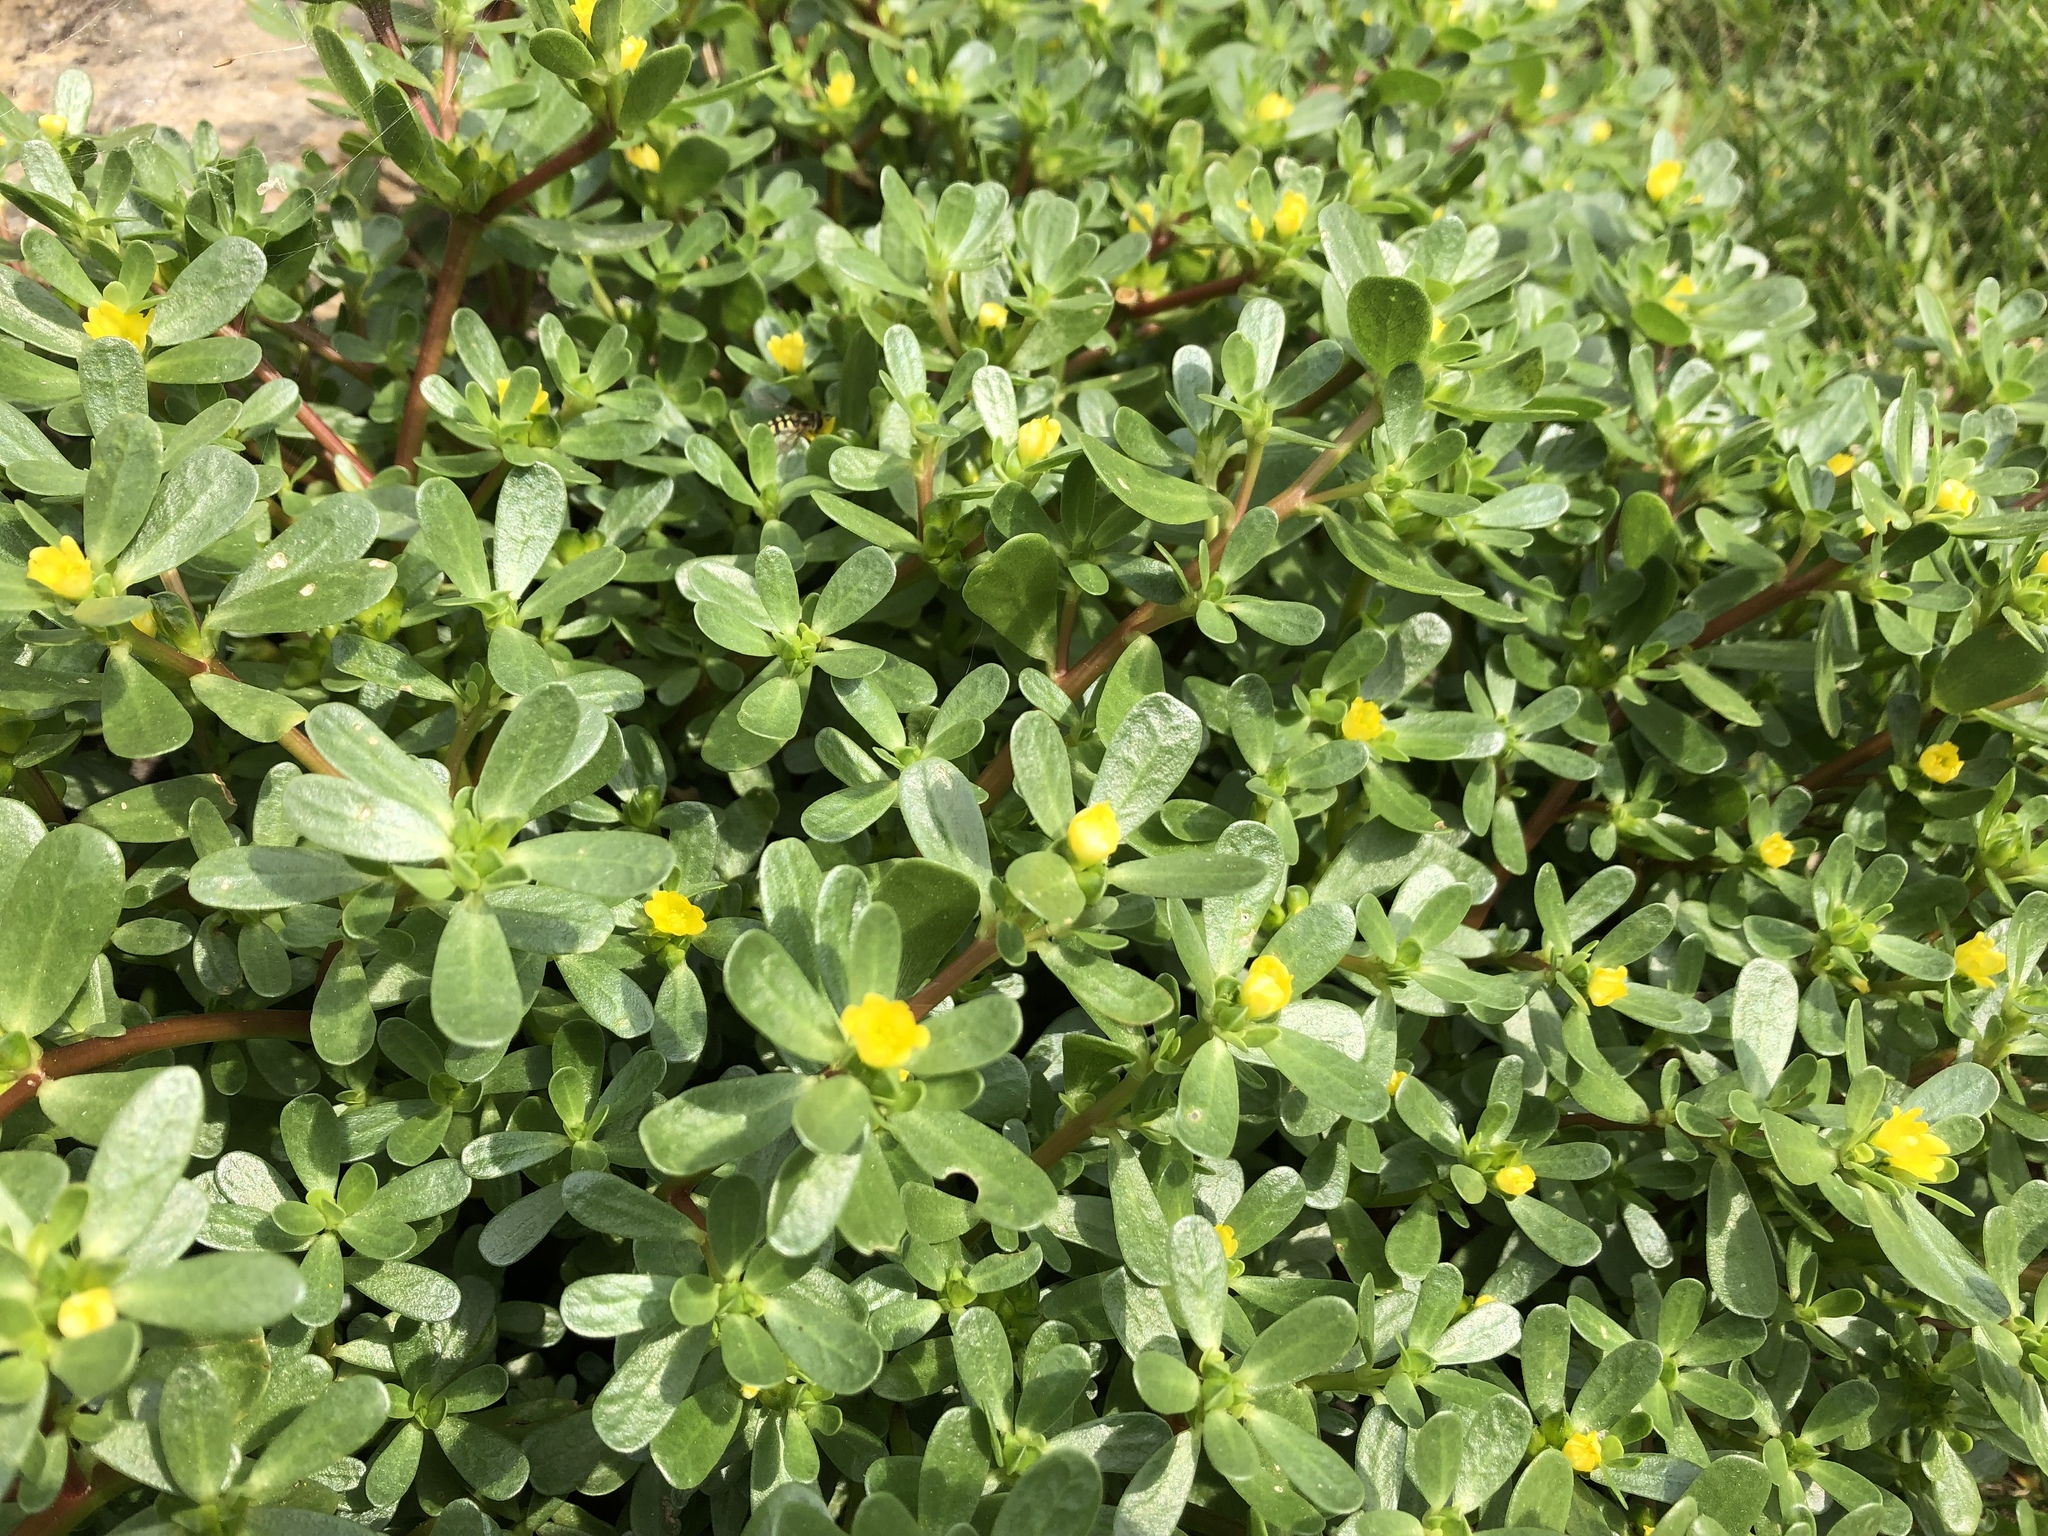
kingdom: Plantae
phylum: Tracheophyta
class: Magnoliopsida
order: Caryophyllales
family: Portulacaceae
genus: Portulaca
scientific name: Portulaca oleracea
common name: Common purslane
